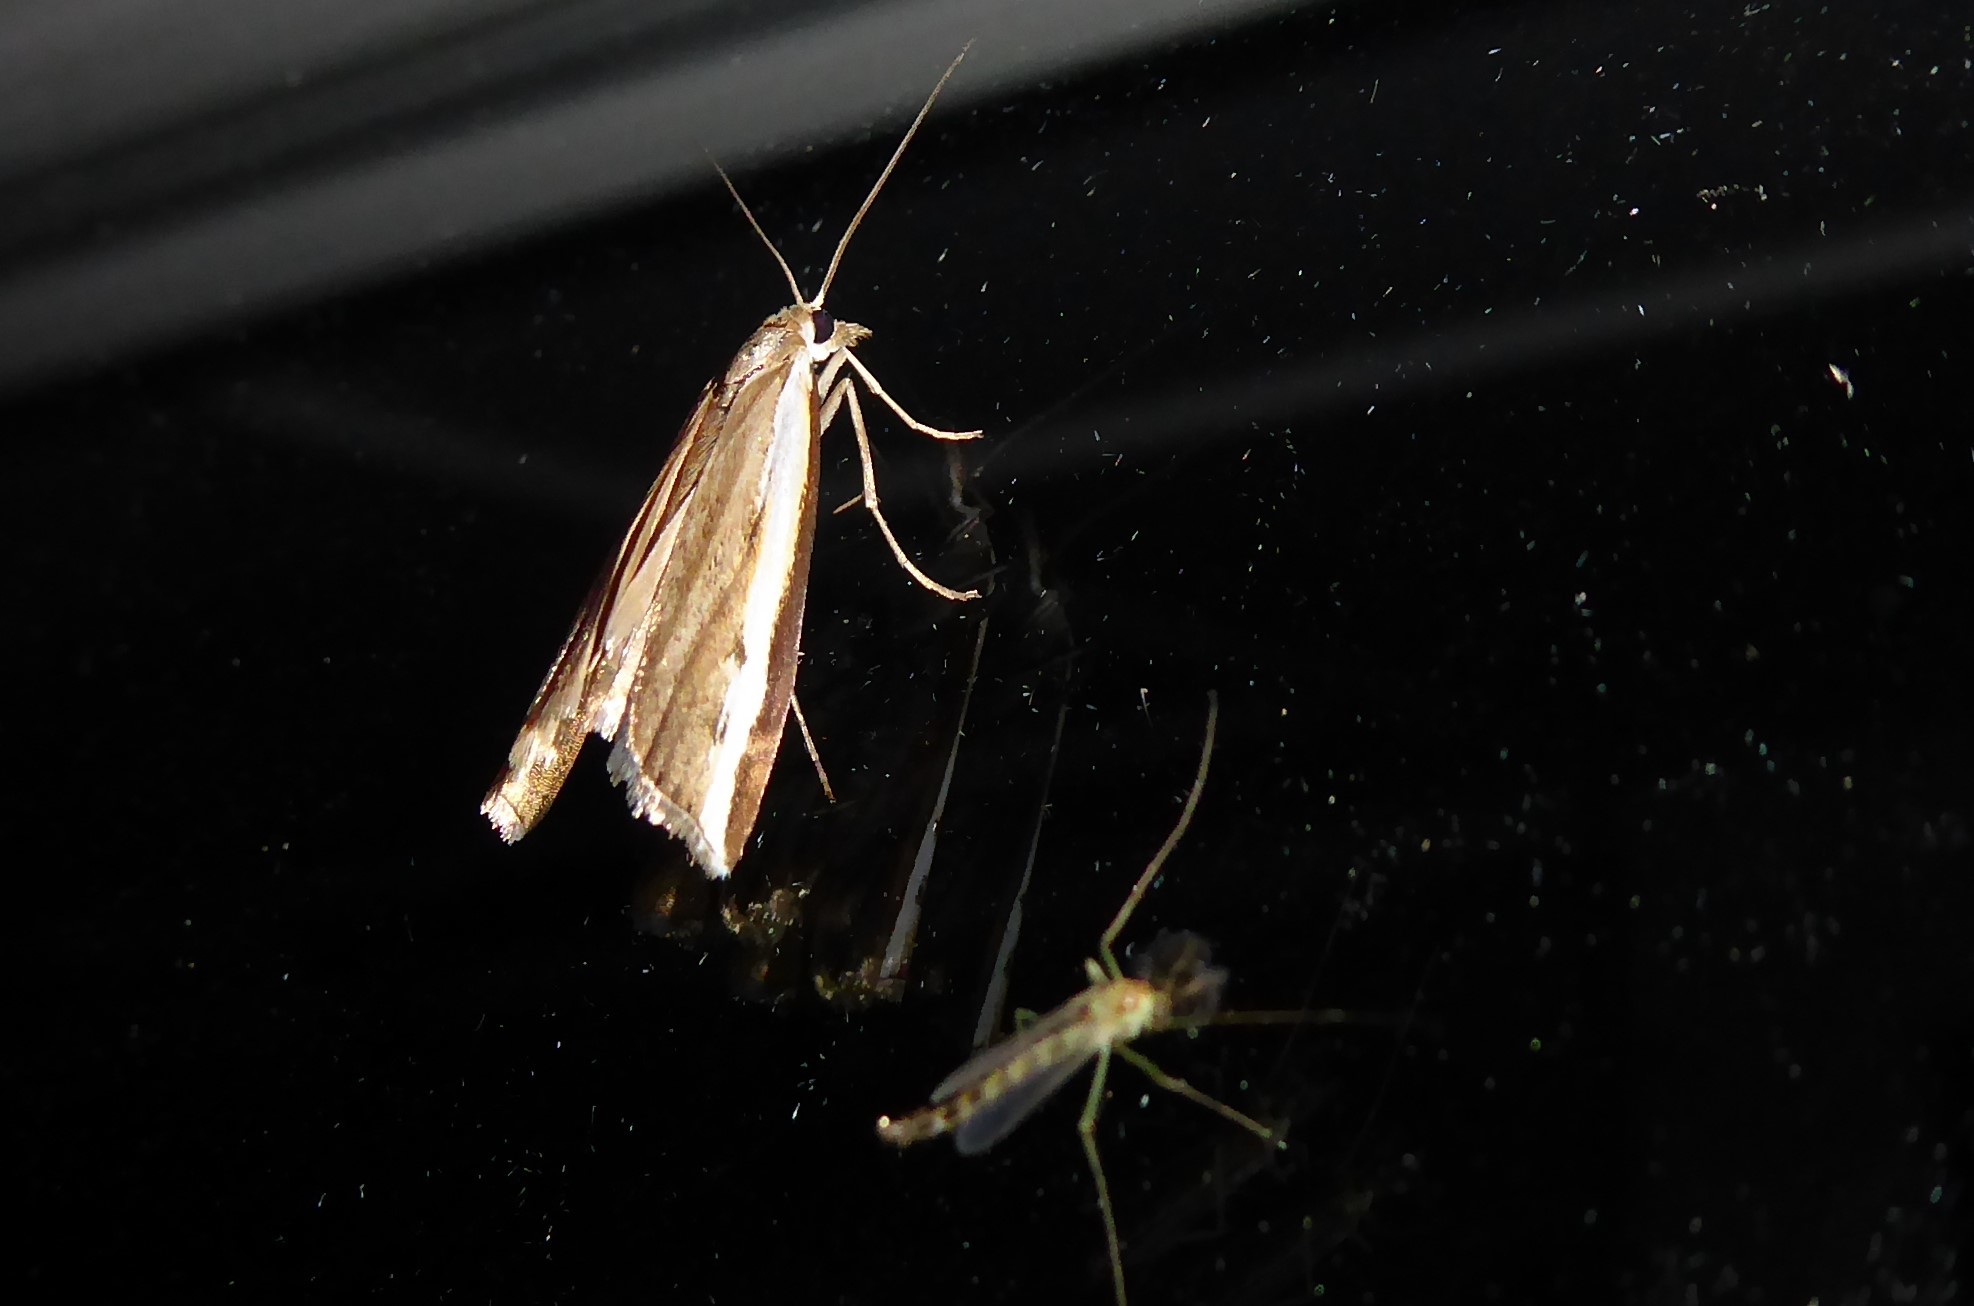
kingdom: Animalia
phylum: Arthropoda
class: Insecta
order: Lepidoptera
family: Crambidae
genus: Orocrambus
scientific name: Orocrambus flexuosellus
